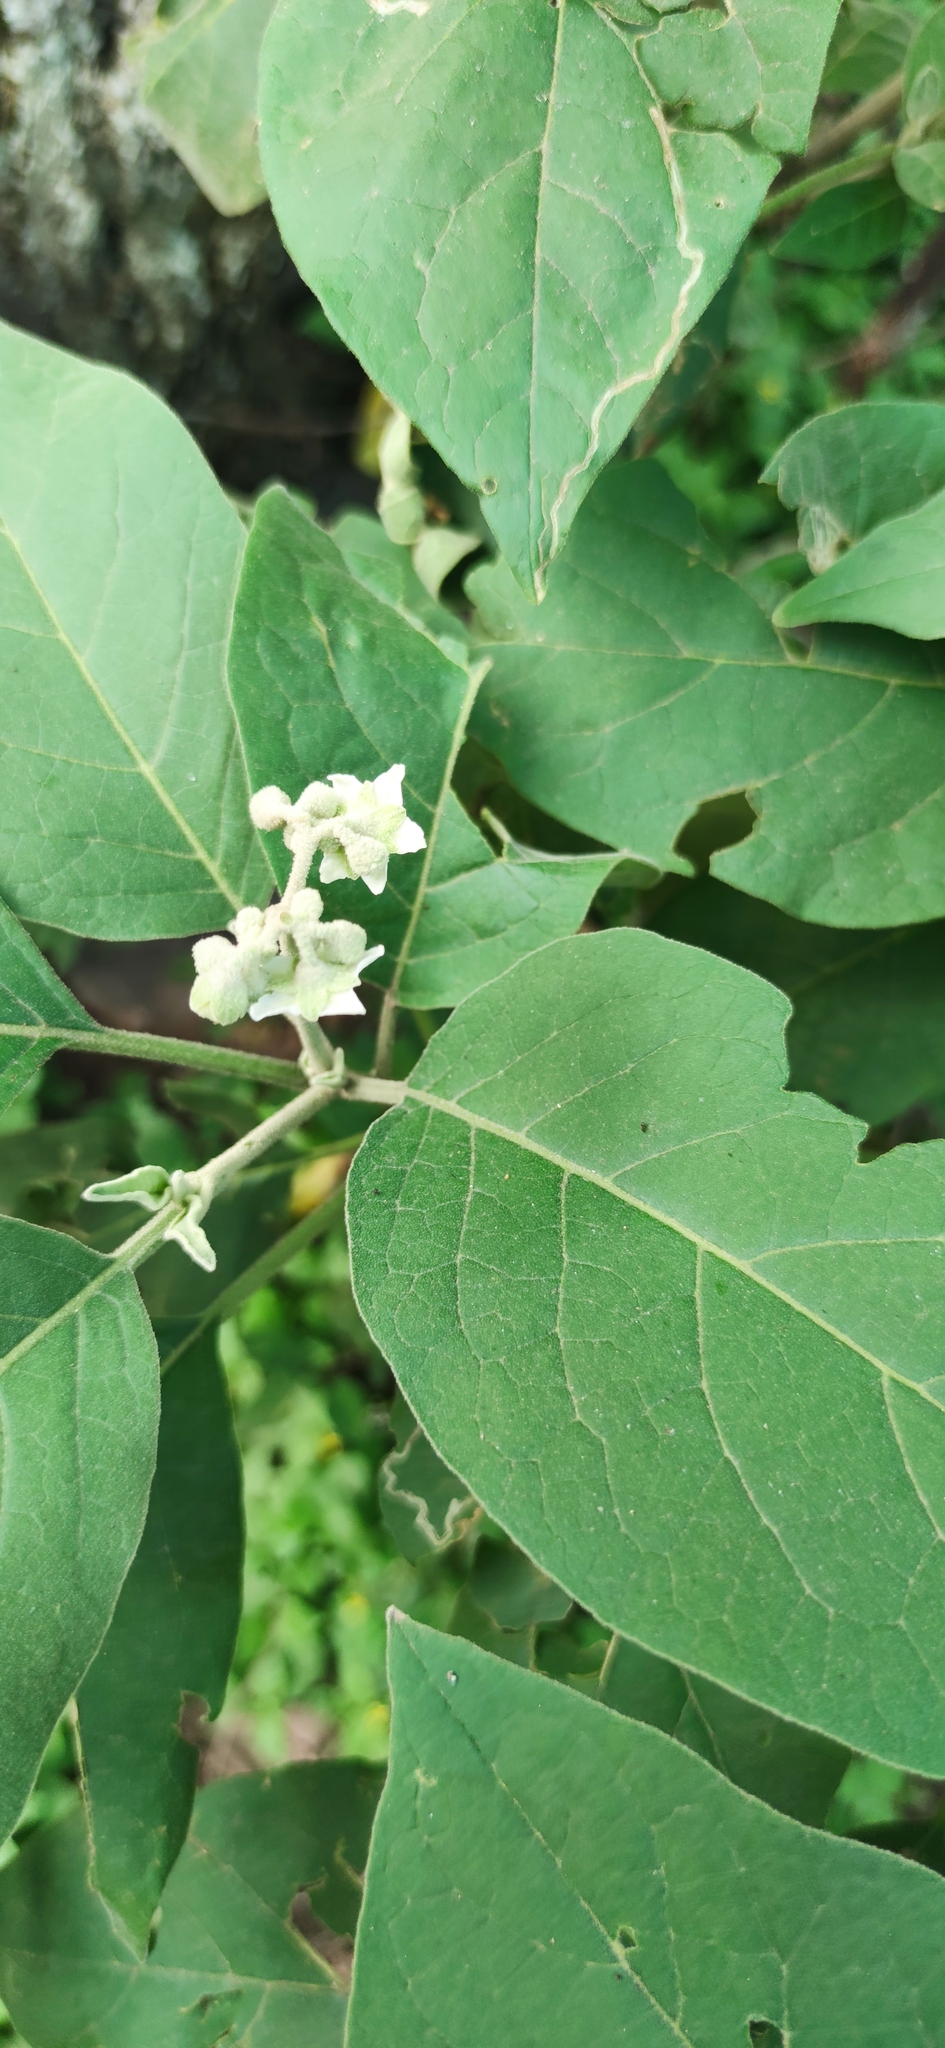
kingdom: Plantae
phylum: Tracheophyta
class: Magnoliopsida
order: Solanales
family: Solanaceae
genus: Solanum
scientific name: Solanum erianthum
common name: Tobacco-tree
